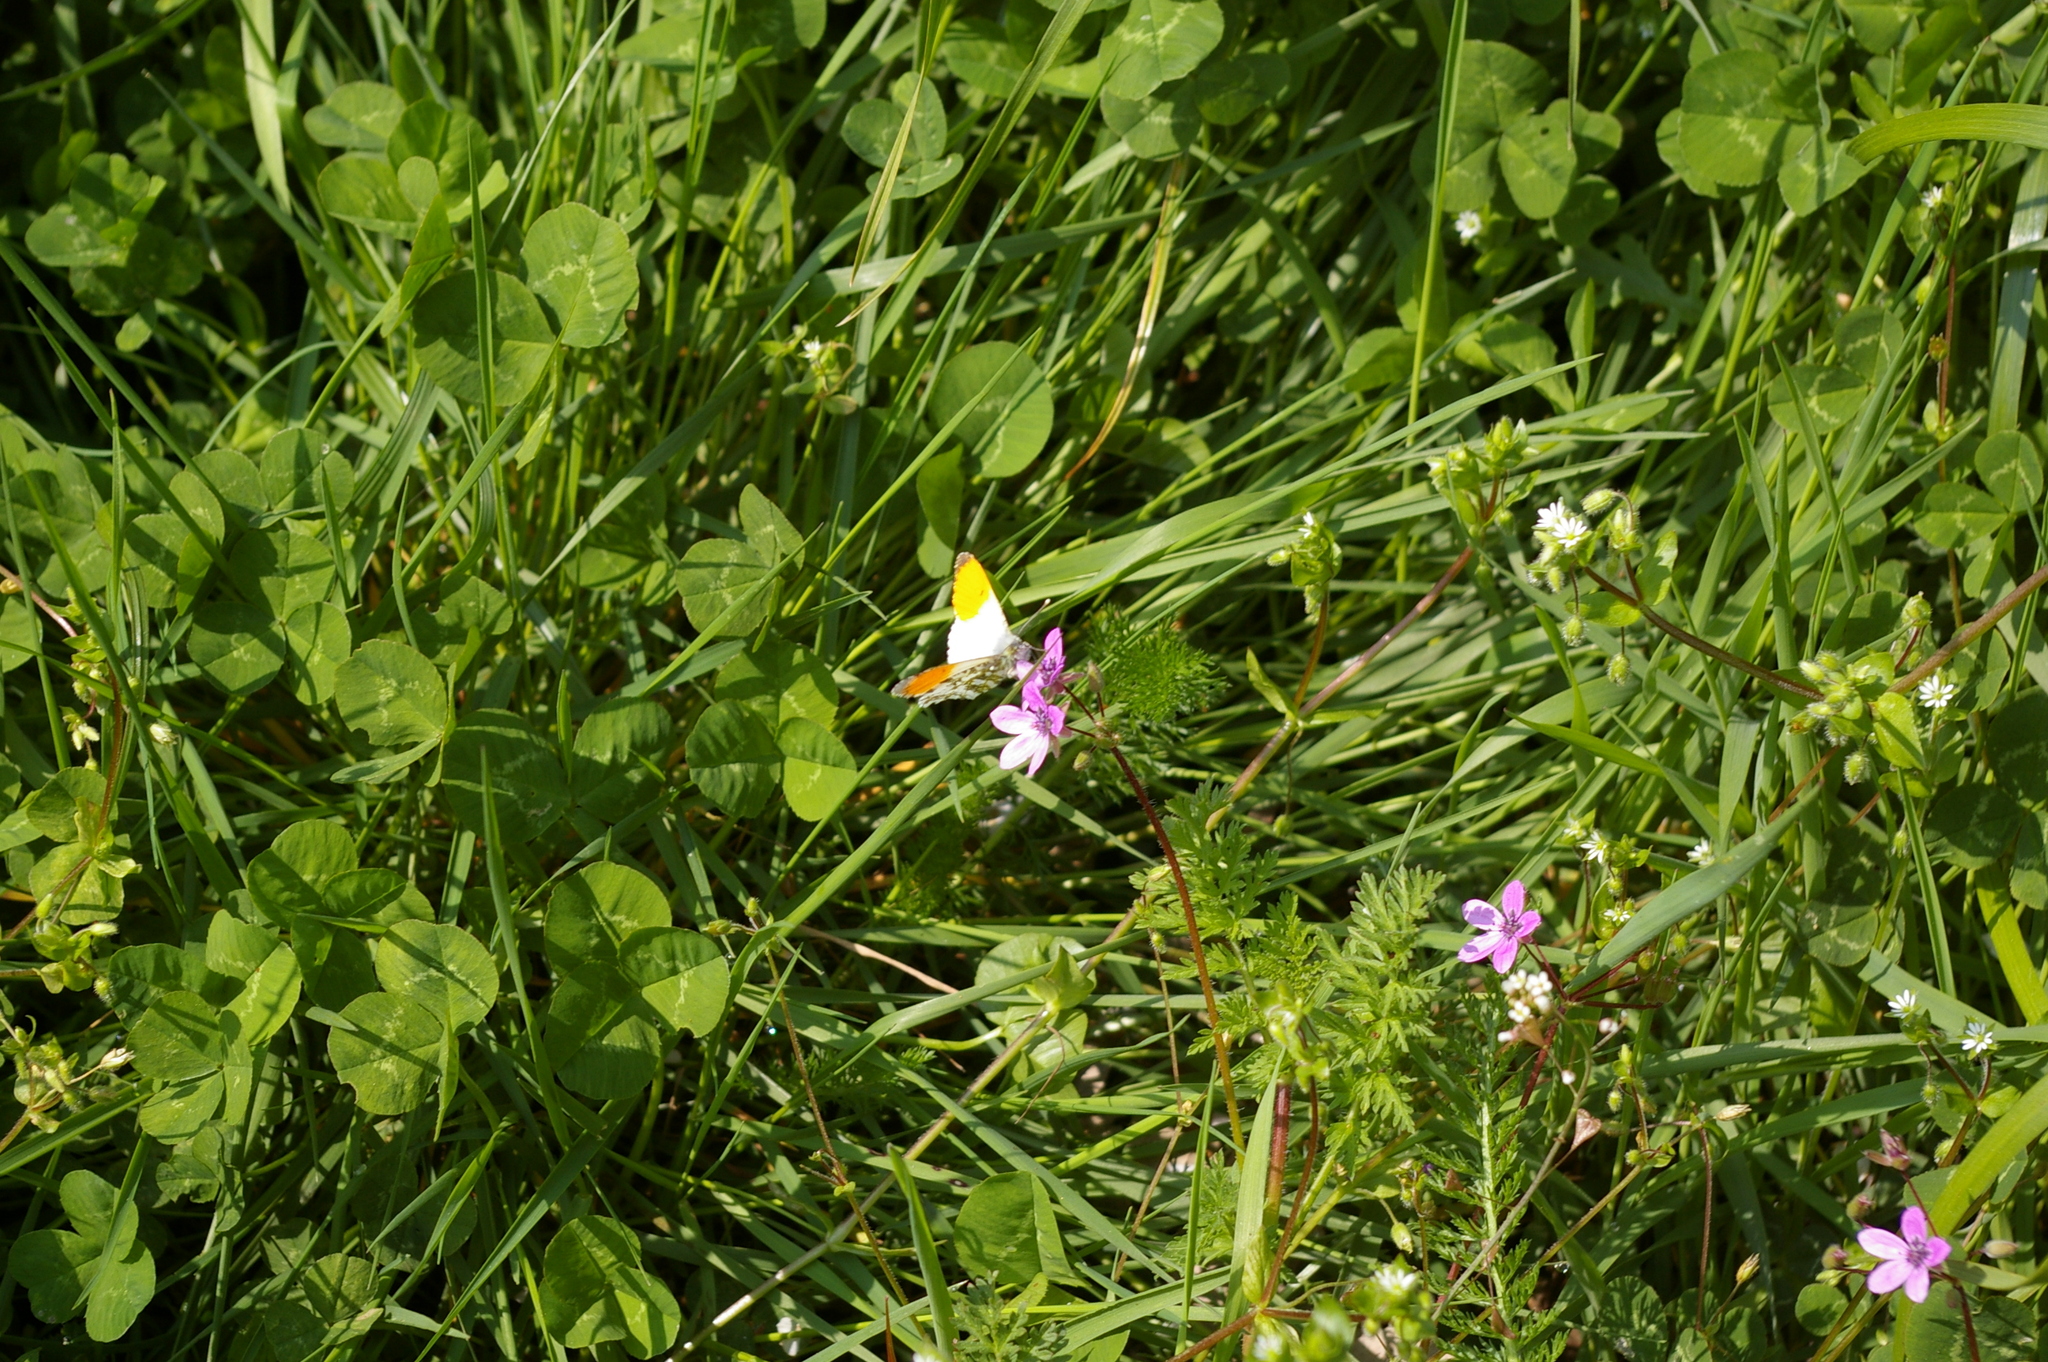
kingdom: Animalia
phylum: Arthropoda
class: Insecta
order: Lepidoptera
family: Pieridae
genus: Anthocharis
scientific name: Anthocharis cardamines
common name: Orange-tip
